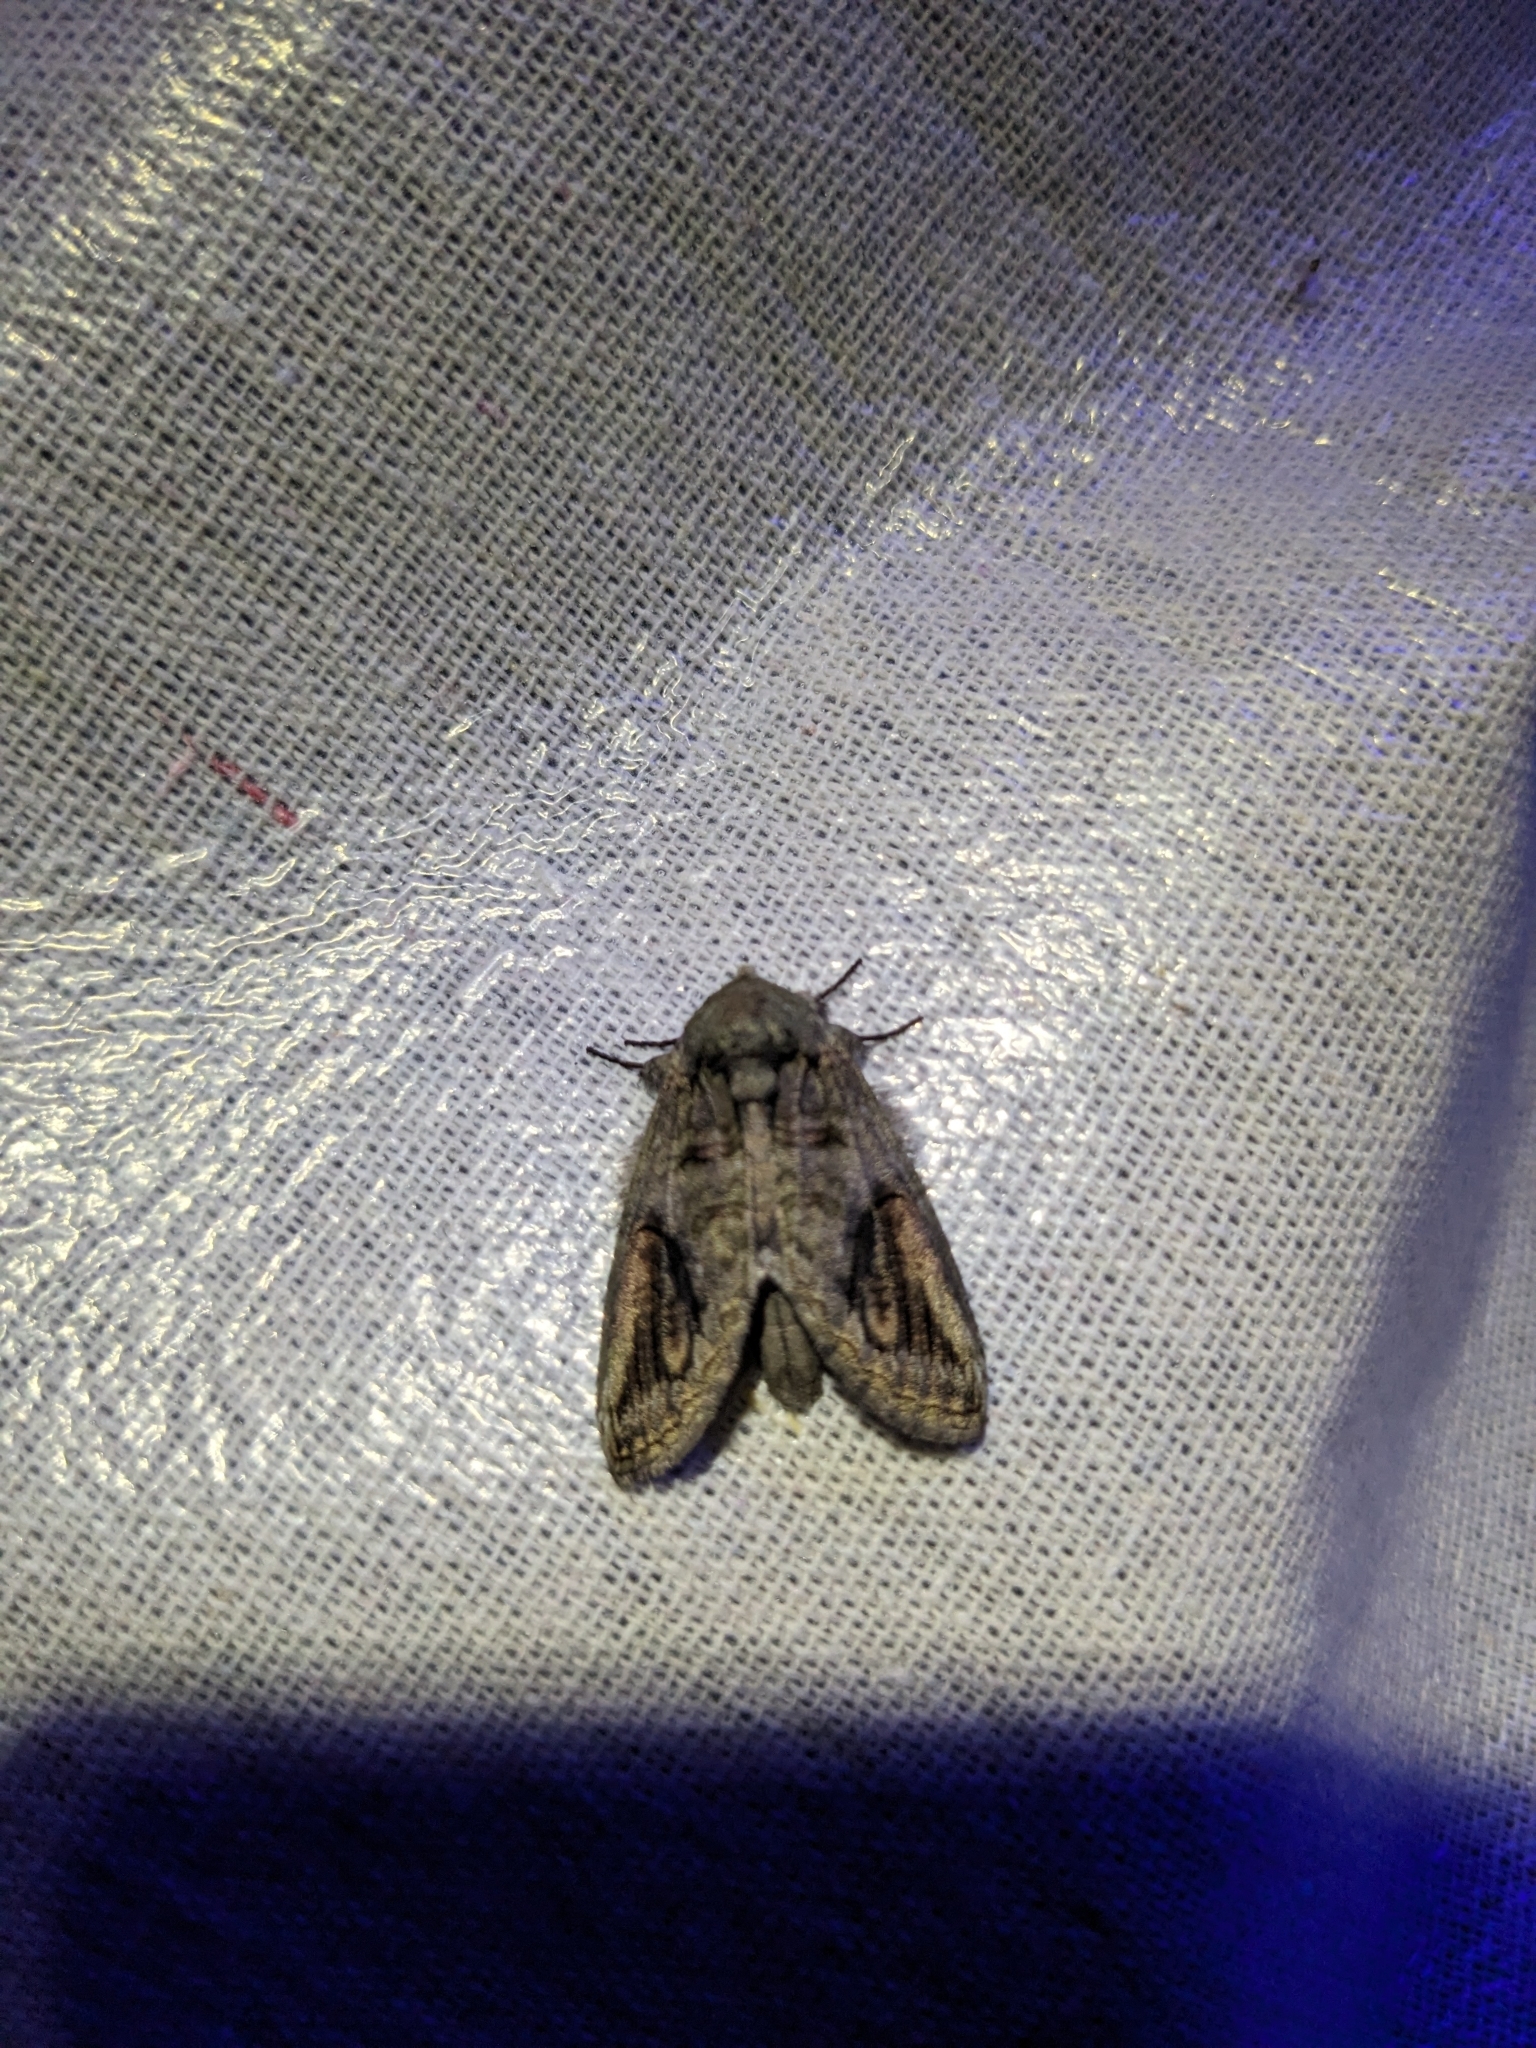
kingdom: Animalia
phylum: Arthropoda
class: Insecta
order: Lepidoptera
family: Notodontidae
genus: Heterocampa
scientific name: Heterocampa obliqua
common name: Oblique heterocampa
